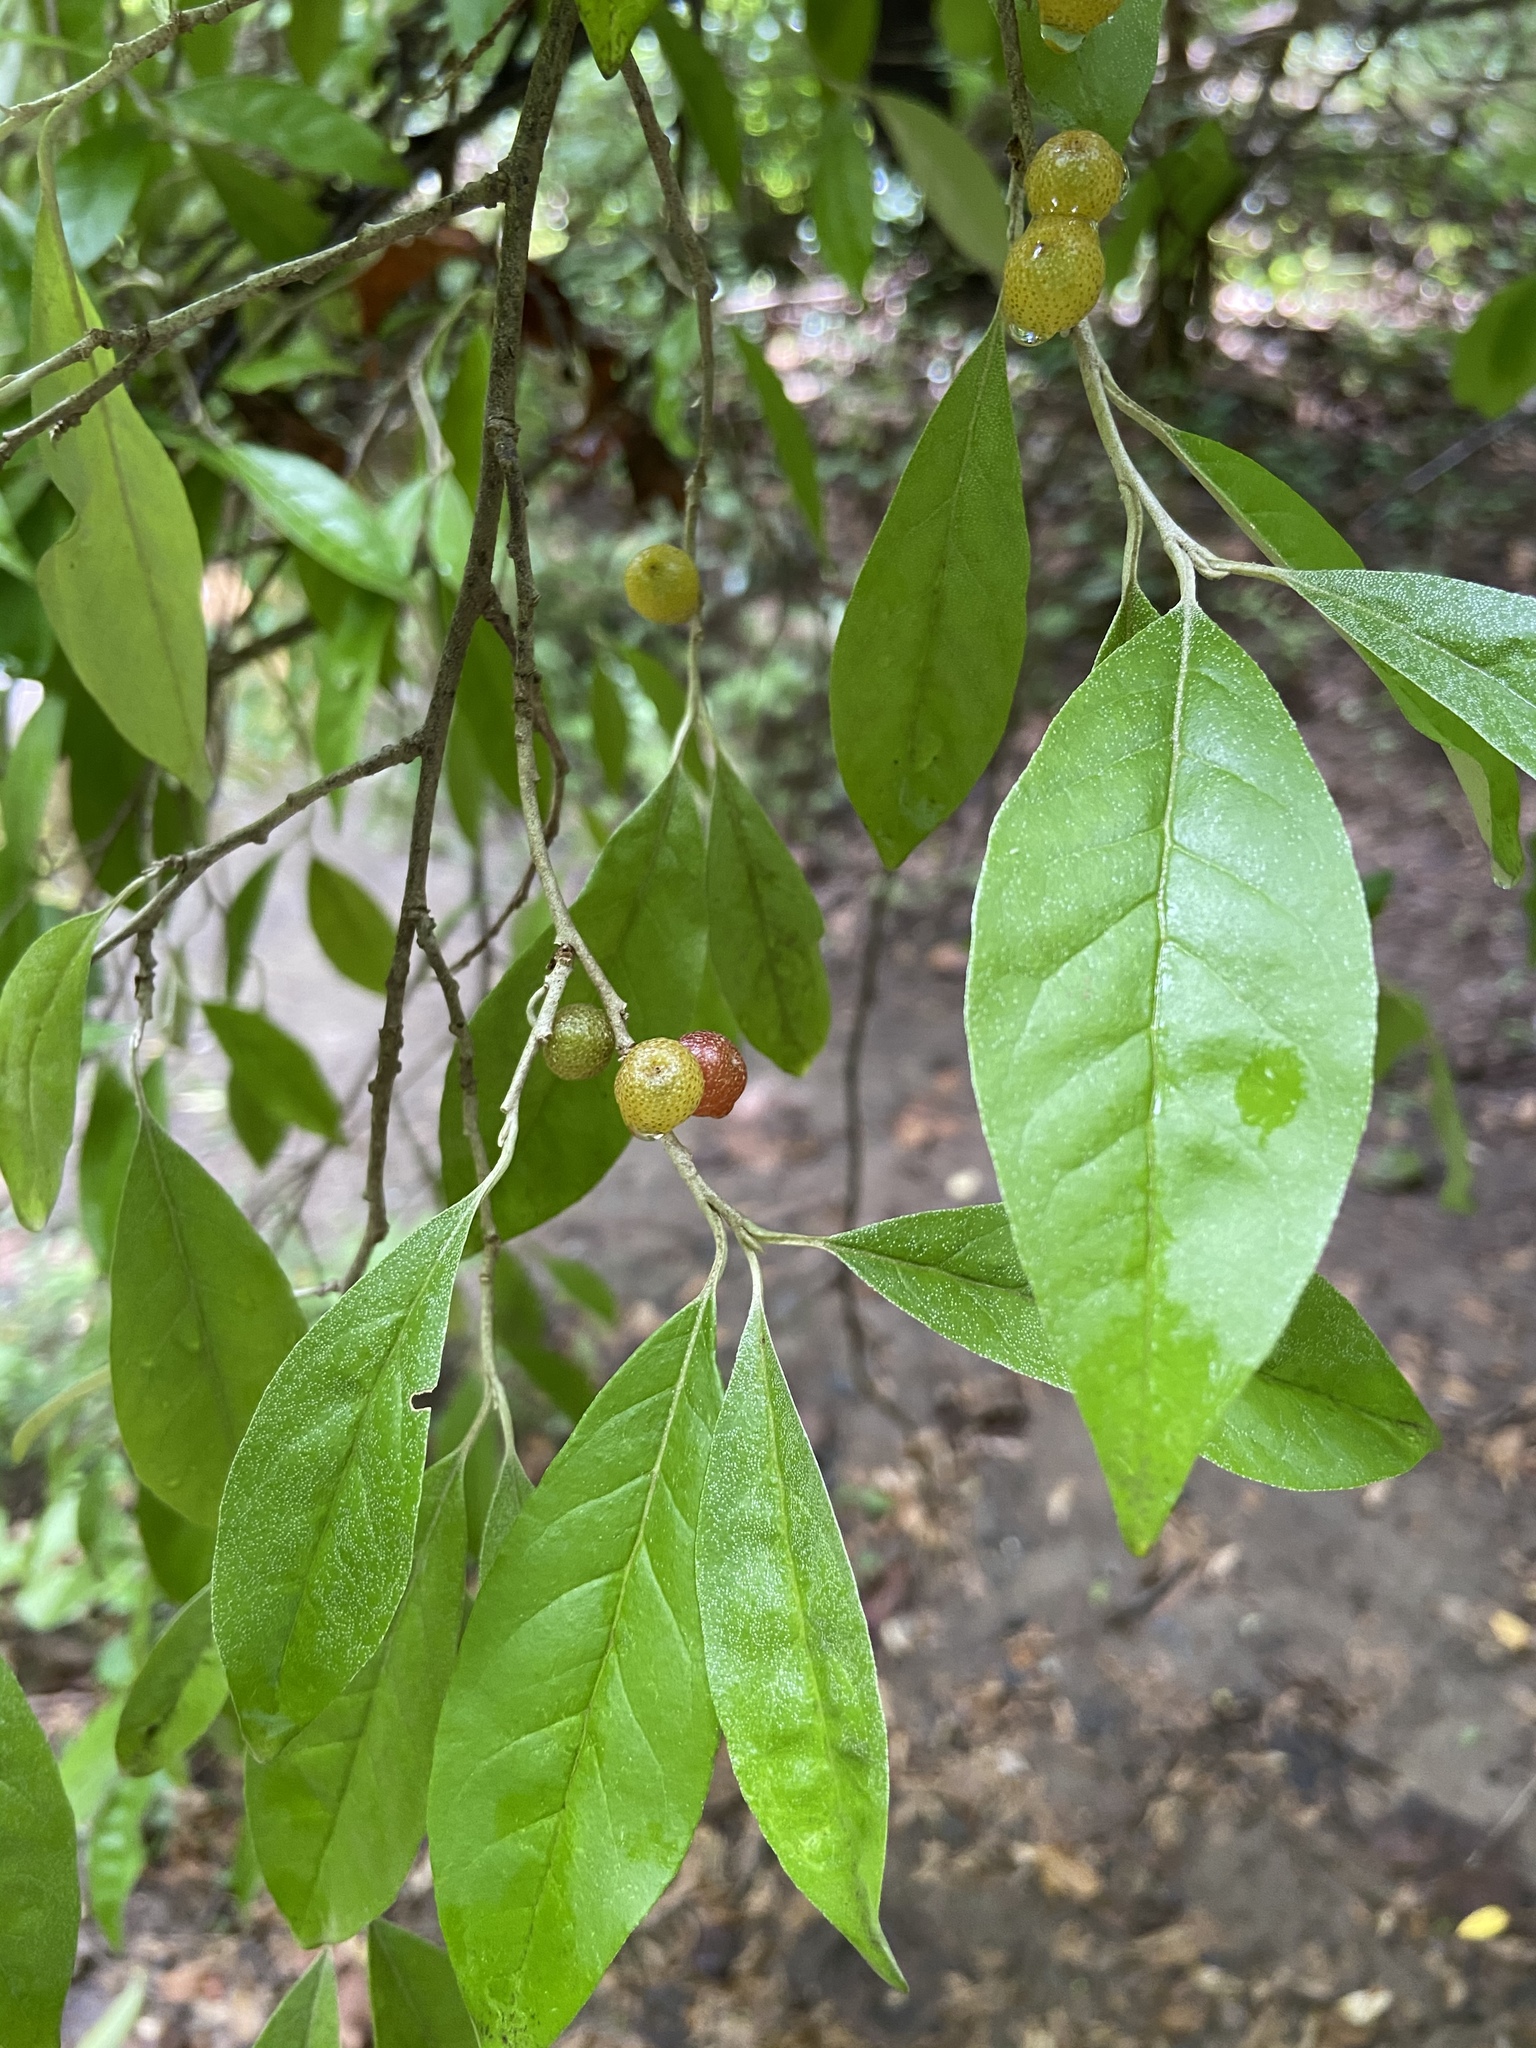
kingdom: Plantae
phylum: Tracheophyta
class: Magnoliopsida
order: Rosales
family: Elaeagnaceae
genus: Elaeagnus
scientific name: Elaeagnus umbellata
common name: Autumn olive
